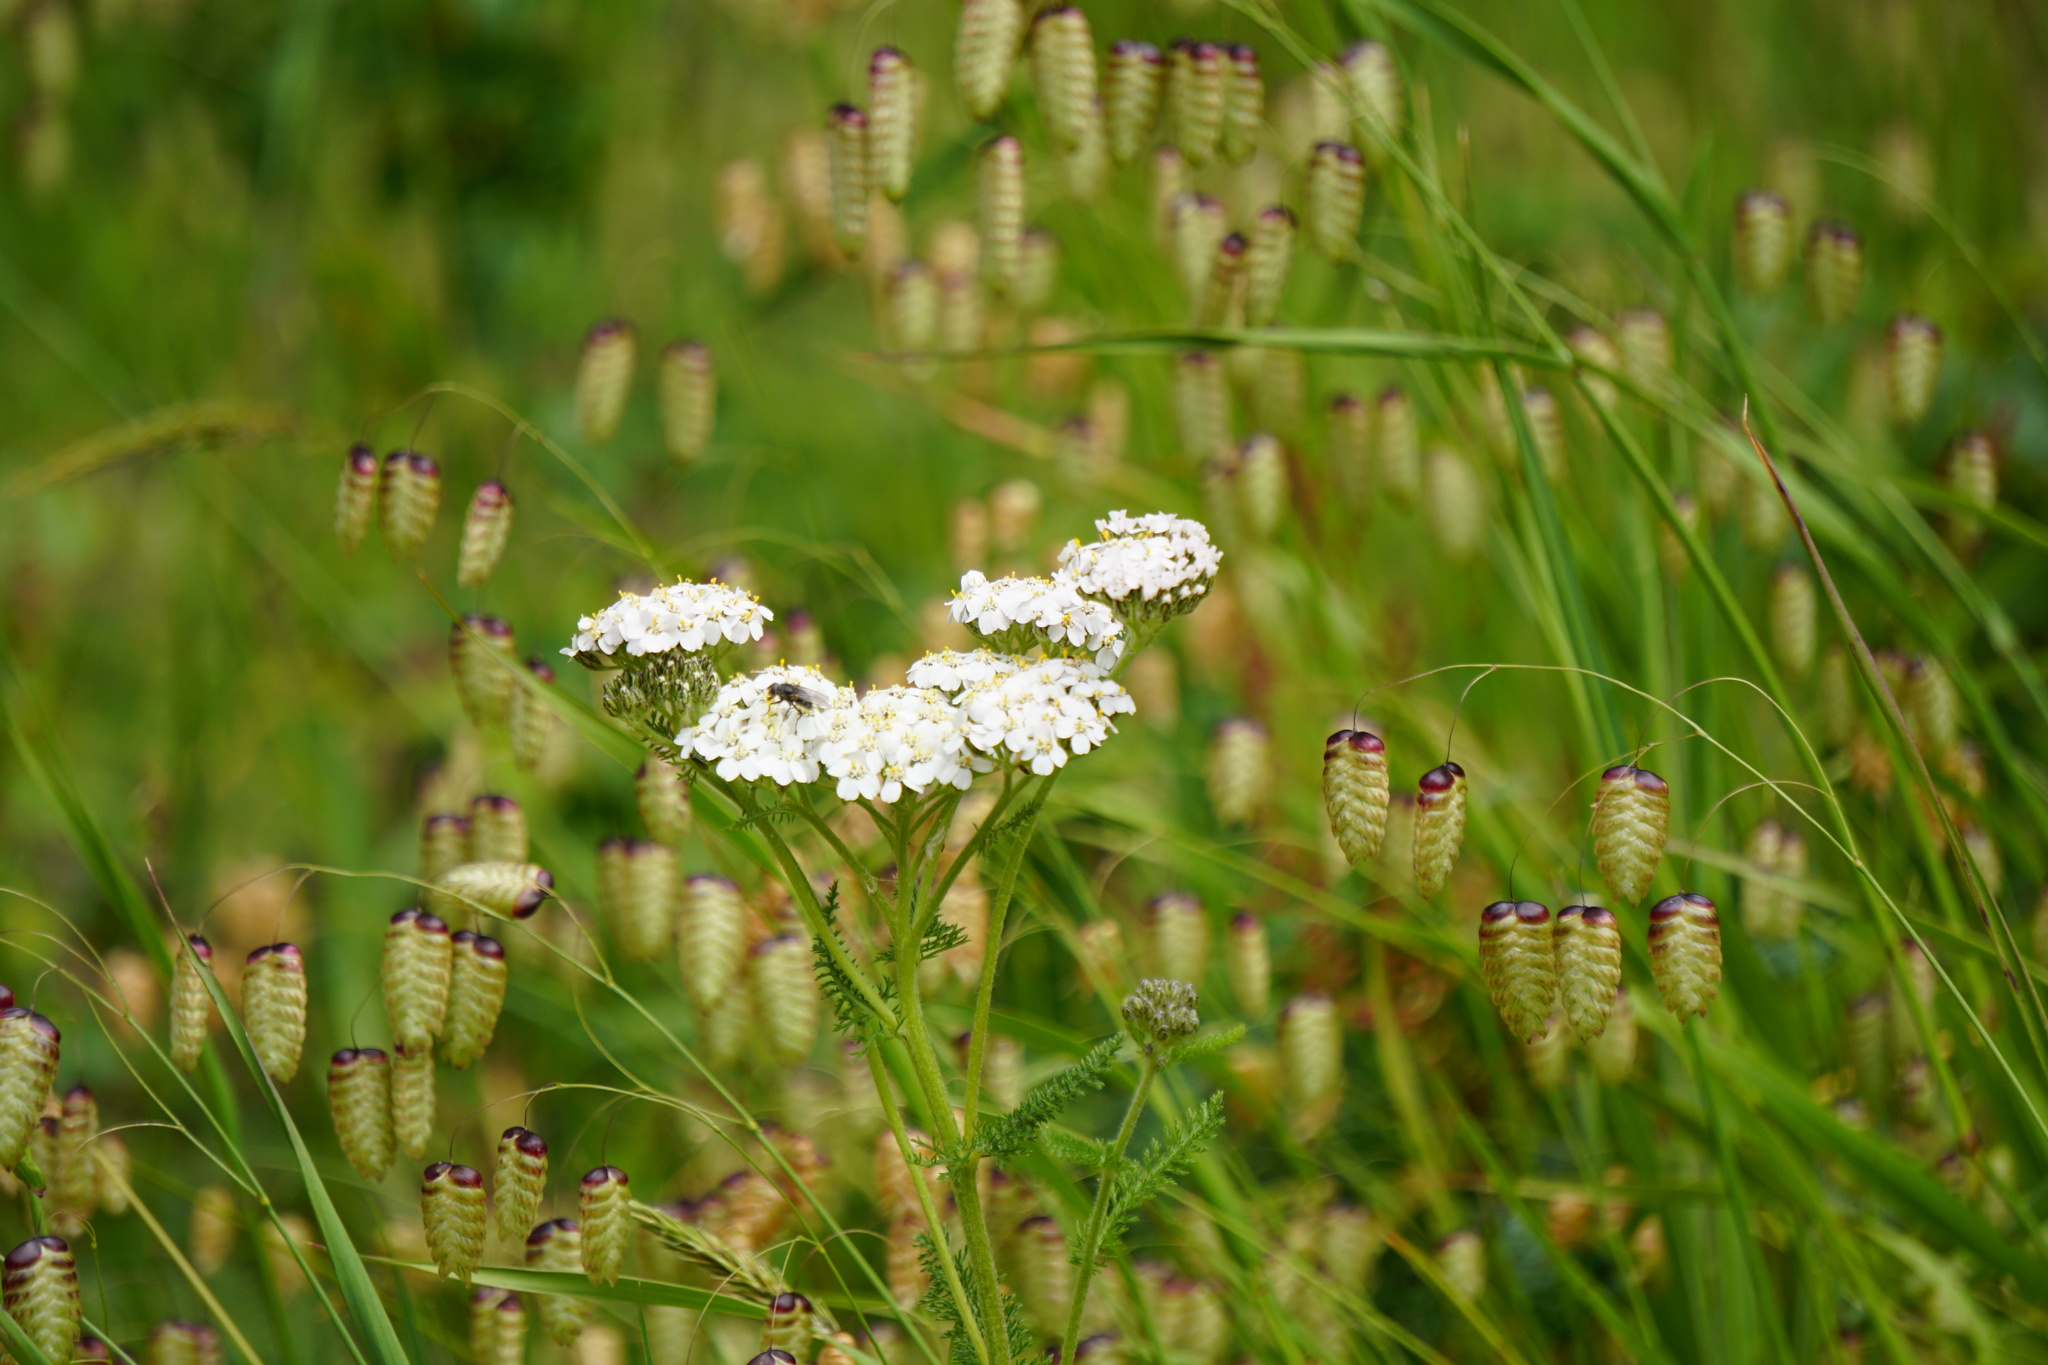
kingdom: Plantae
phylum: Tracheophyta
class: Magnoliopsida
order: Asterales
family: Asteraceae
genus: Achillea
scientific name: Achillea millefolium
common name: Yarrow
